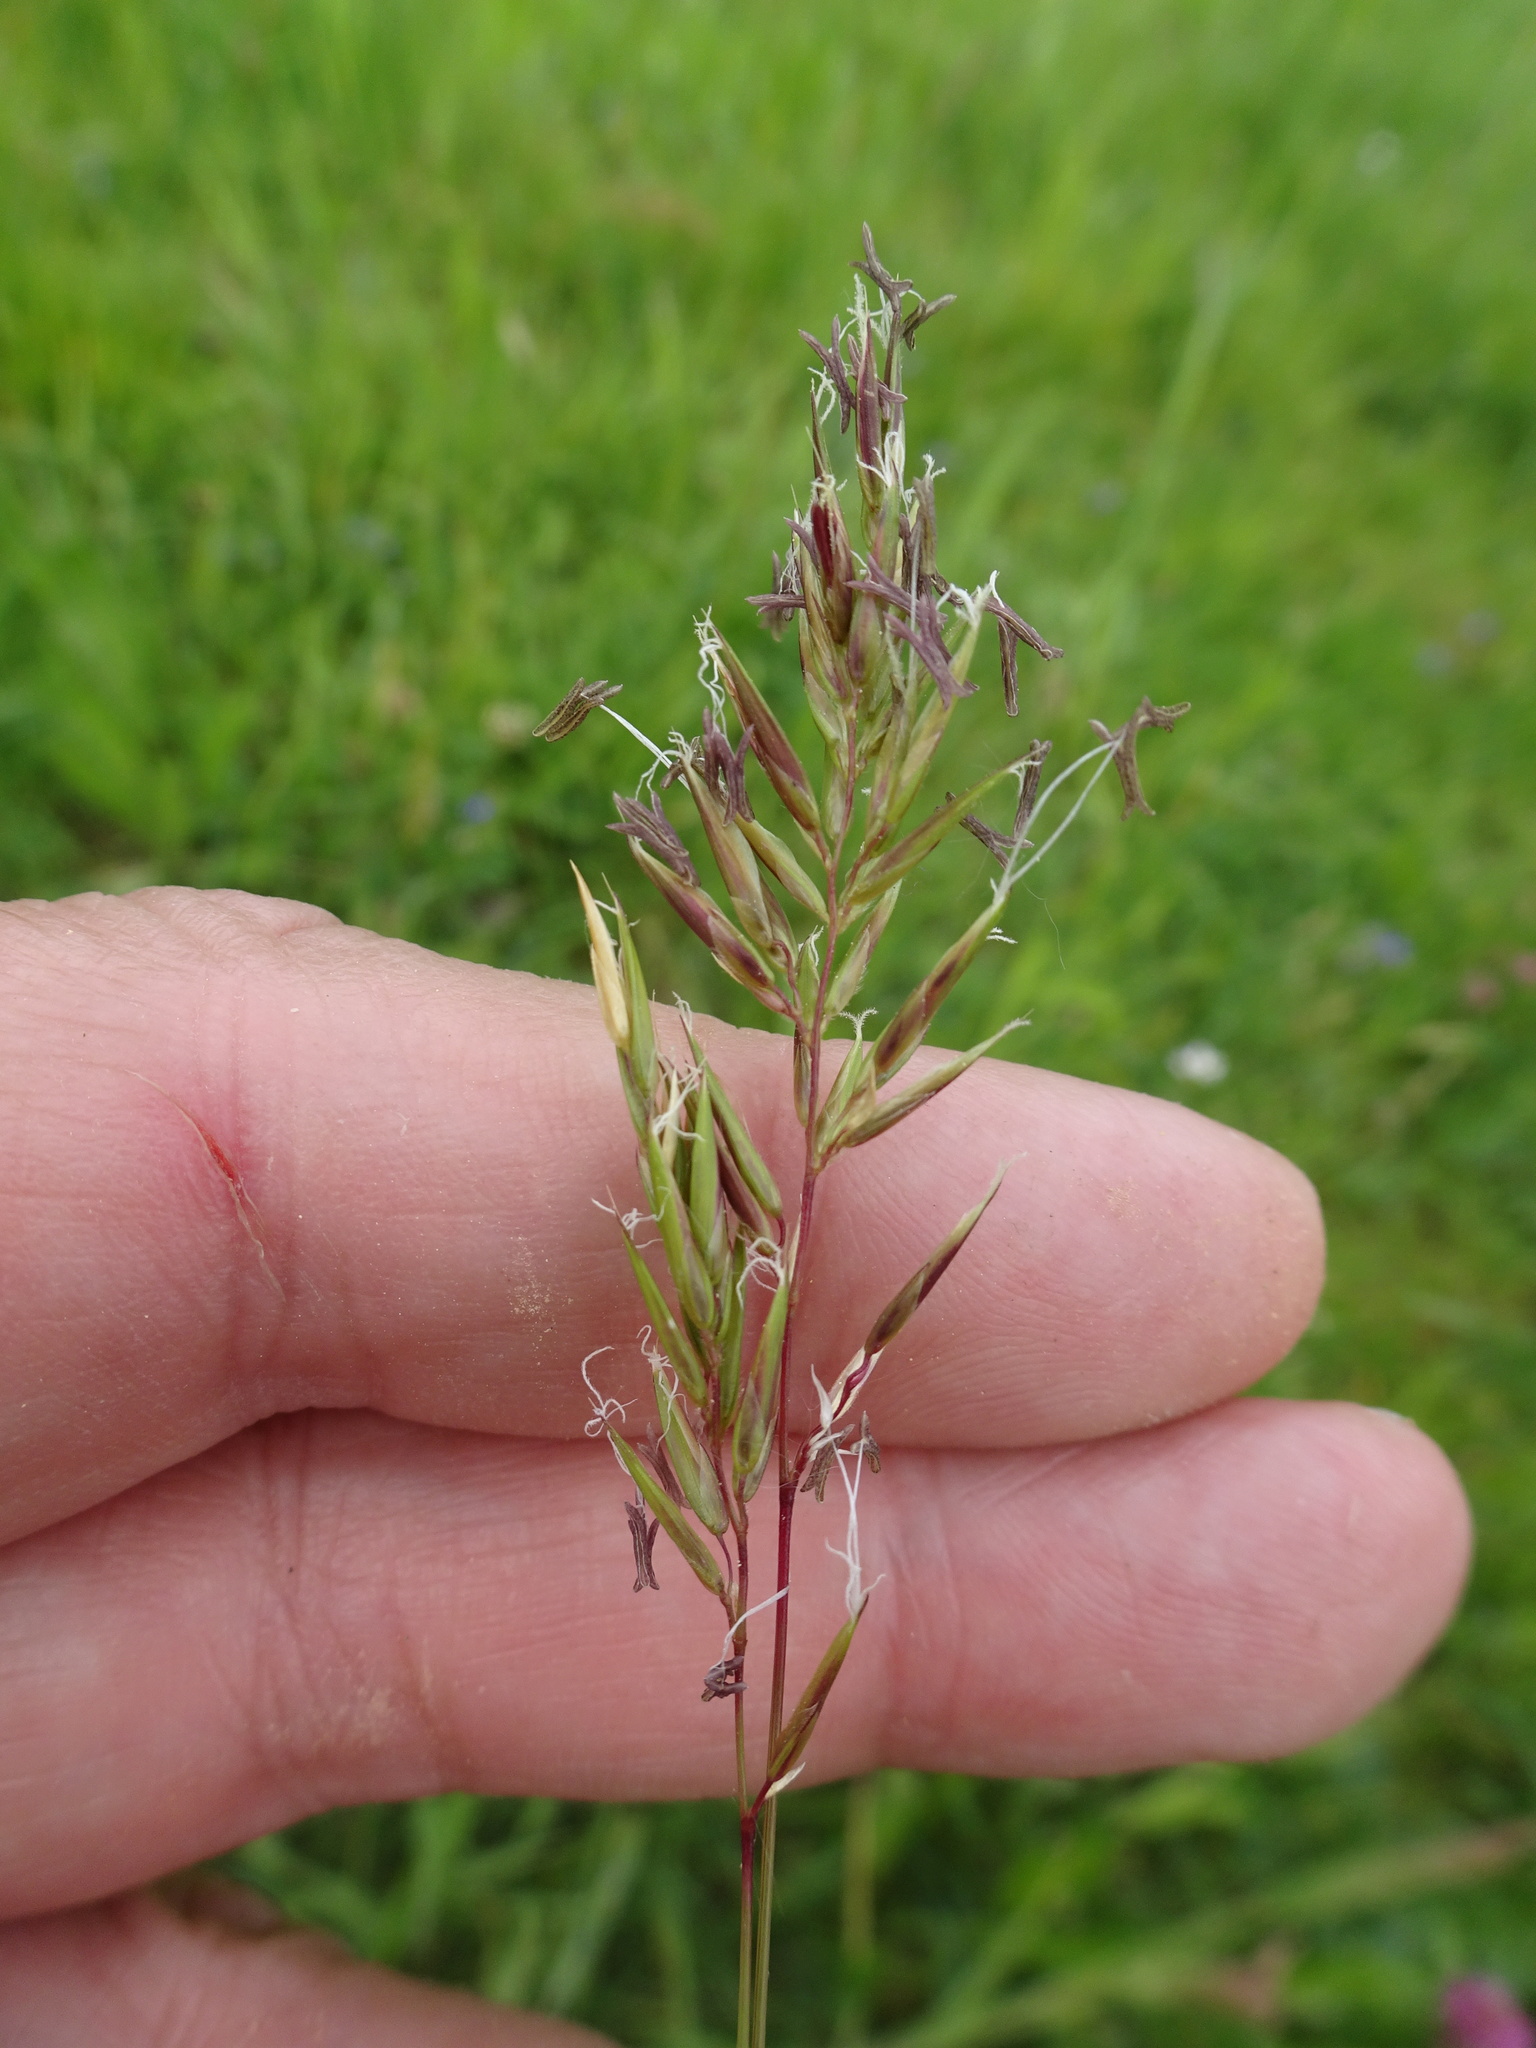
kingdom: Plantae
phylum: Tracheophyta
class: Liliopsida
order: Poales
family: Poaceae
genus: Anthoxanthum
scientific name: Anthoxanthum odoratum
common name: Sweet vernalgrass
